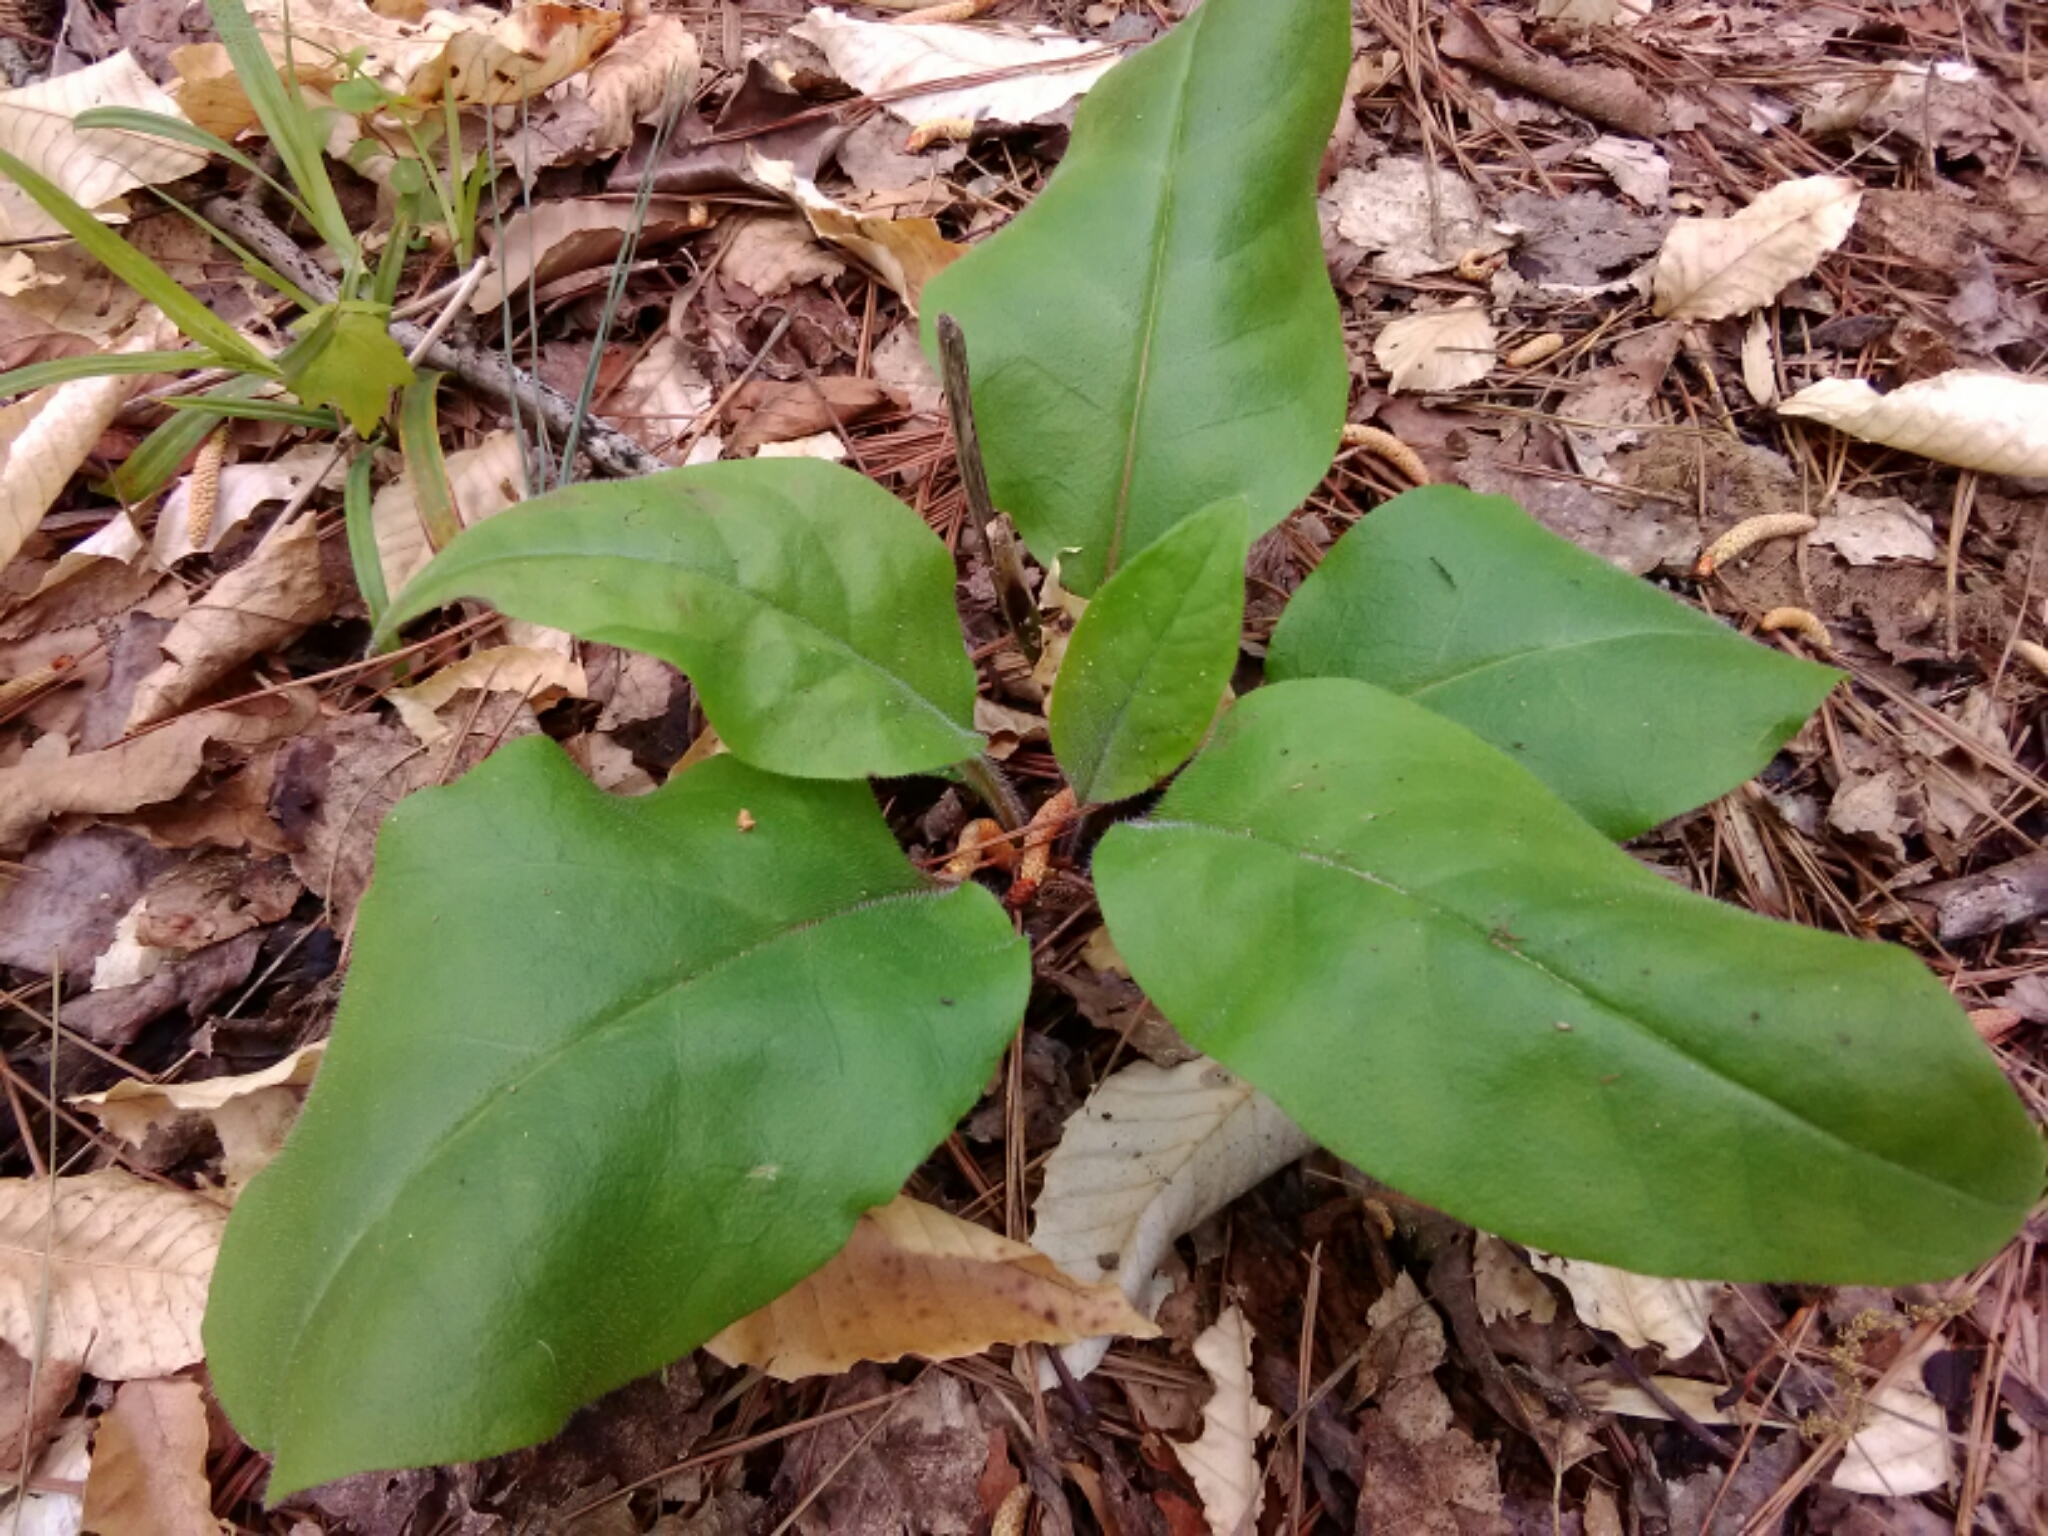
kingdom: Plantae
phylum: Tracheophyta
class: Magnoliopsida
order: Boraginales
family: Boraginaceae
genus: Andersonglossum
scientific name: Andersonglossum virginianum
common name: Wild comfrey
